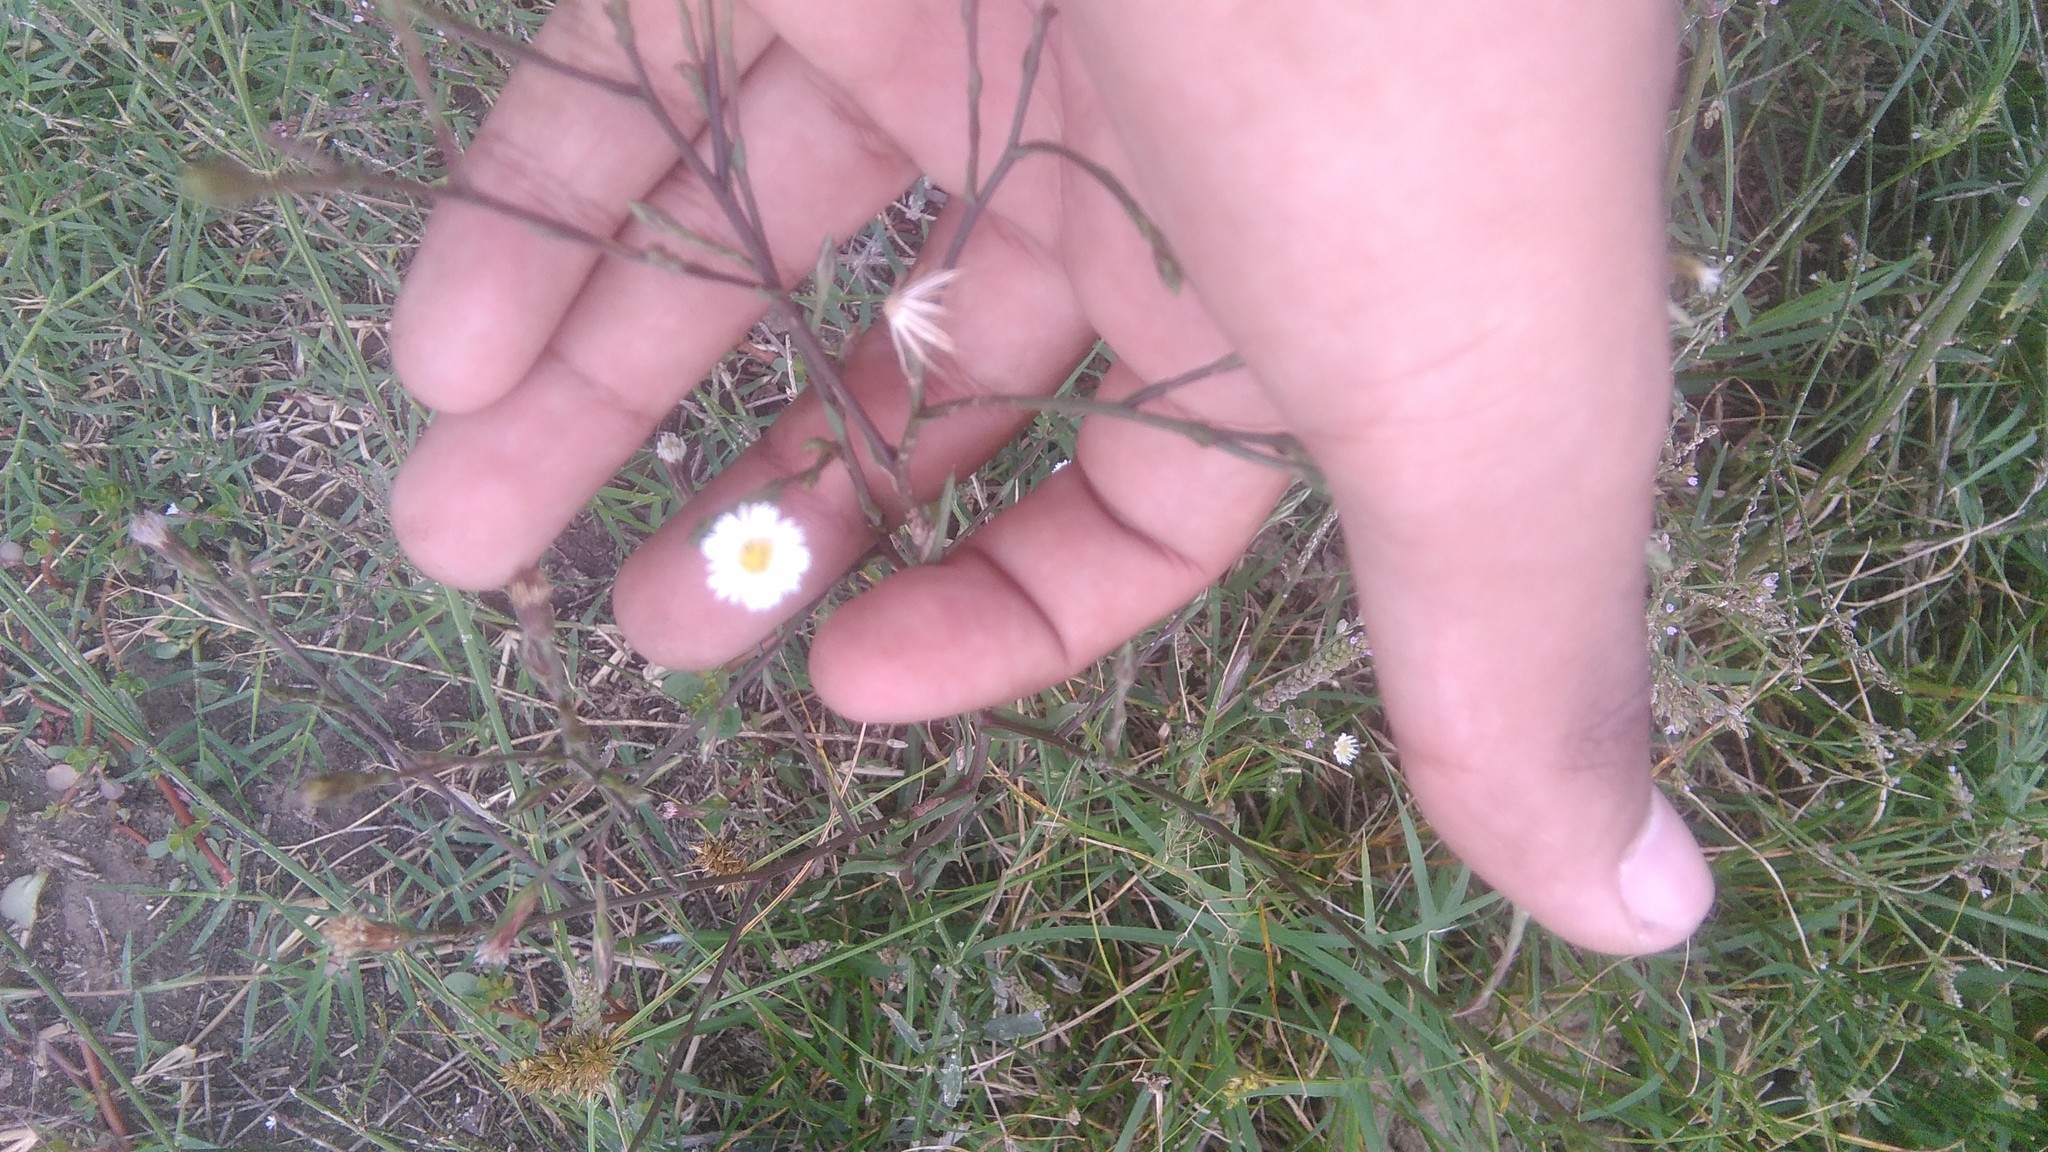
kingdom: Plantae
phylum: Tracheophyta
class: Magnoliopsida
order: Asterales
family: Asteraceae
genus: Symphyotrichum
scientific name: Symphyotrichum squamatum
